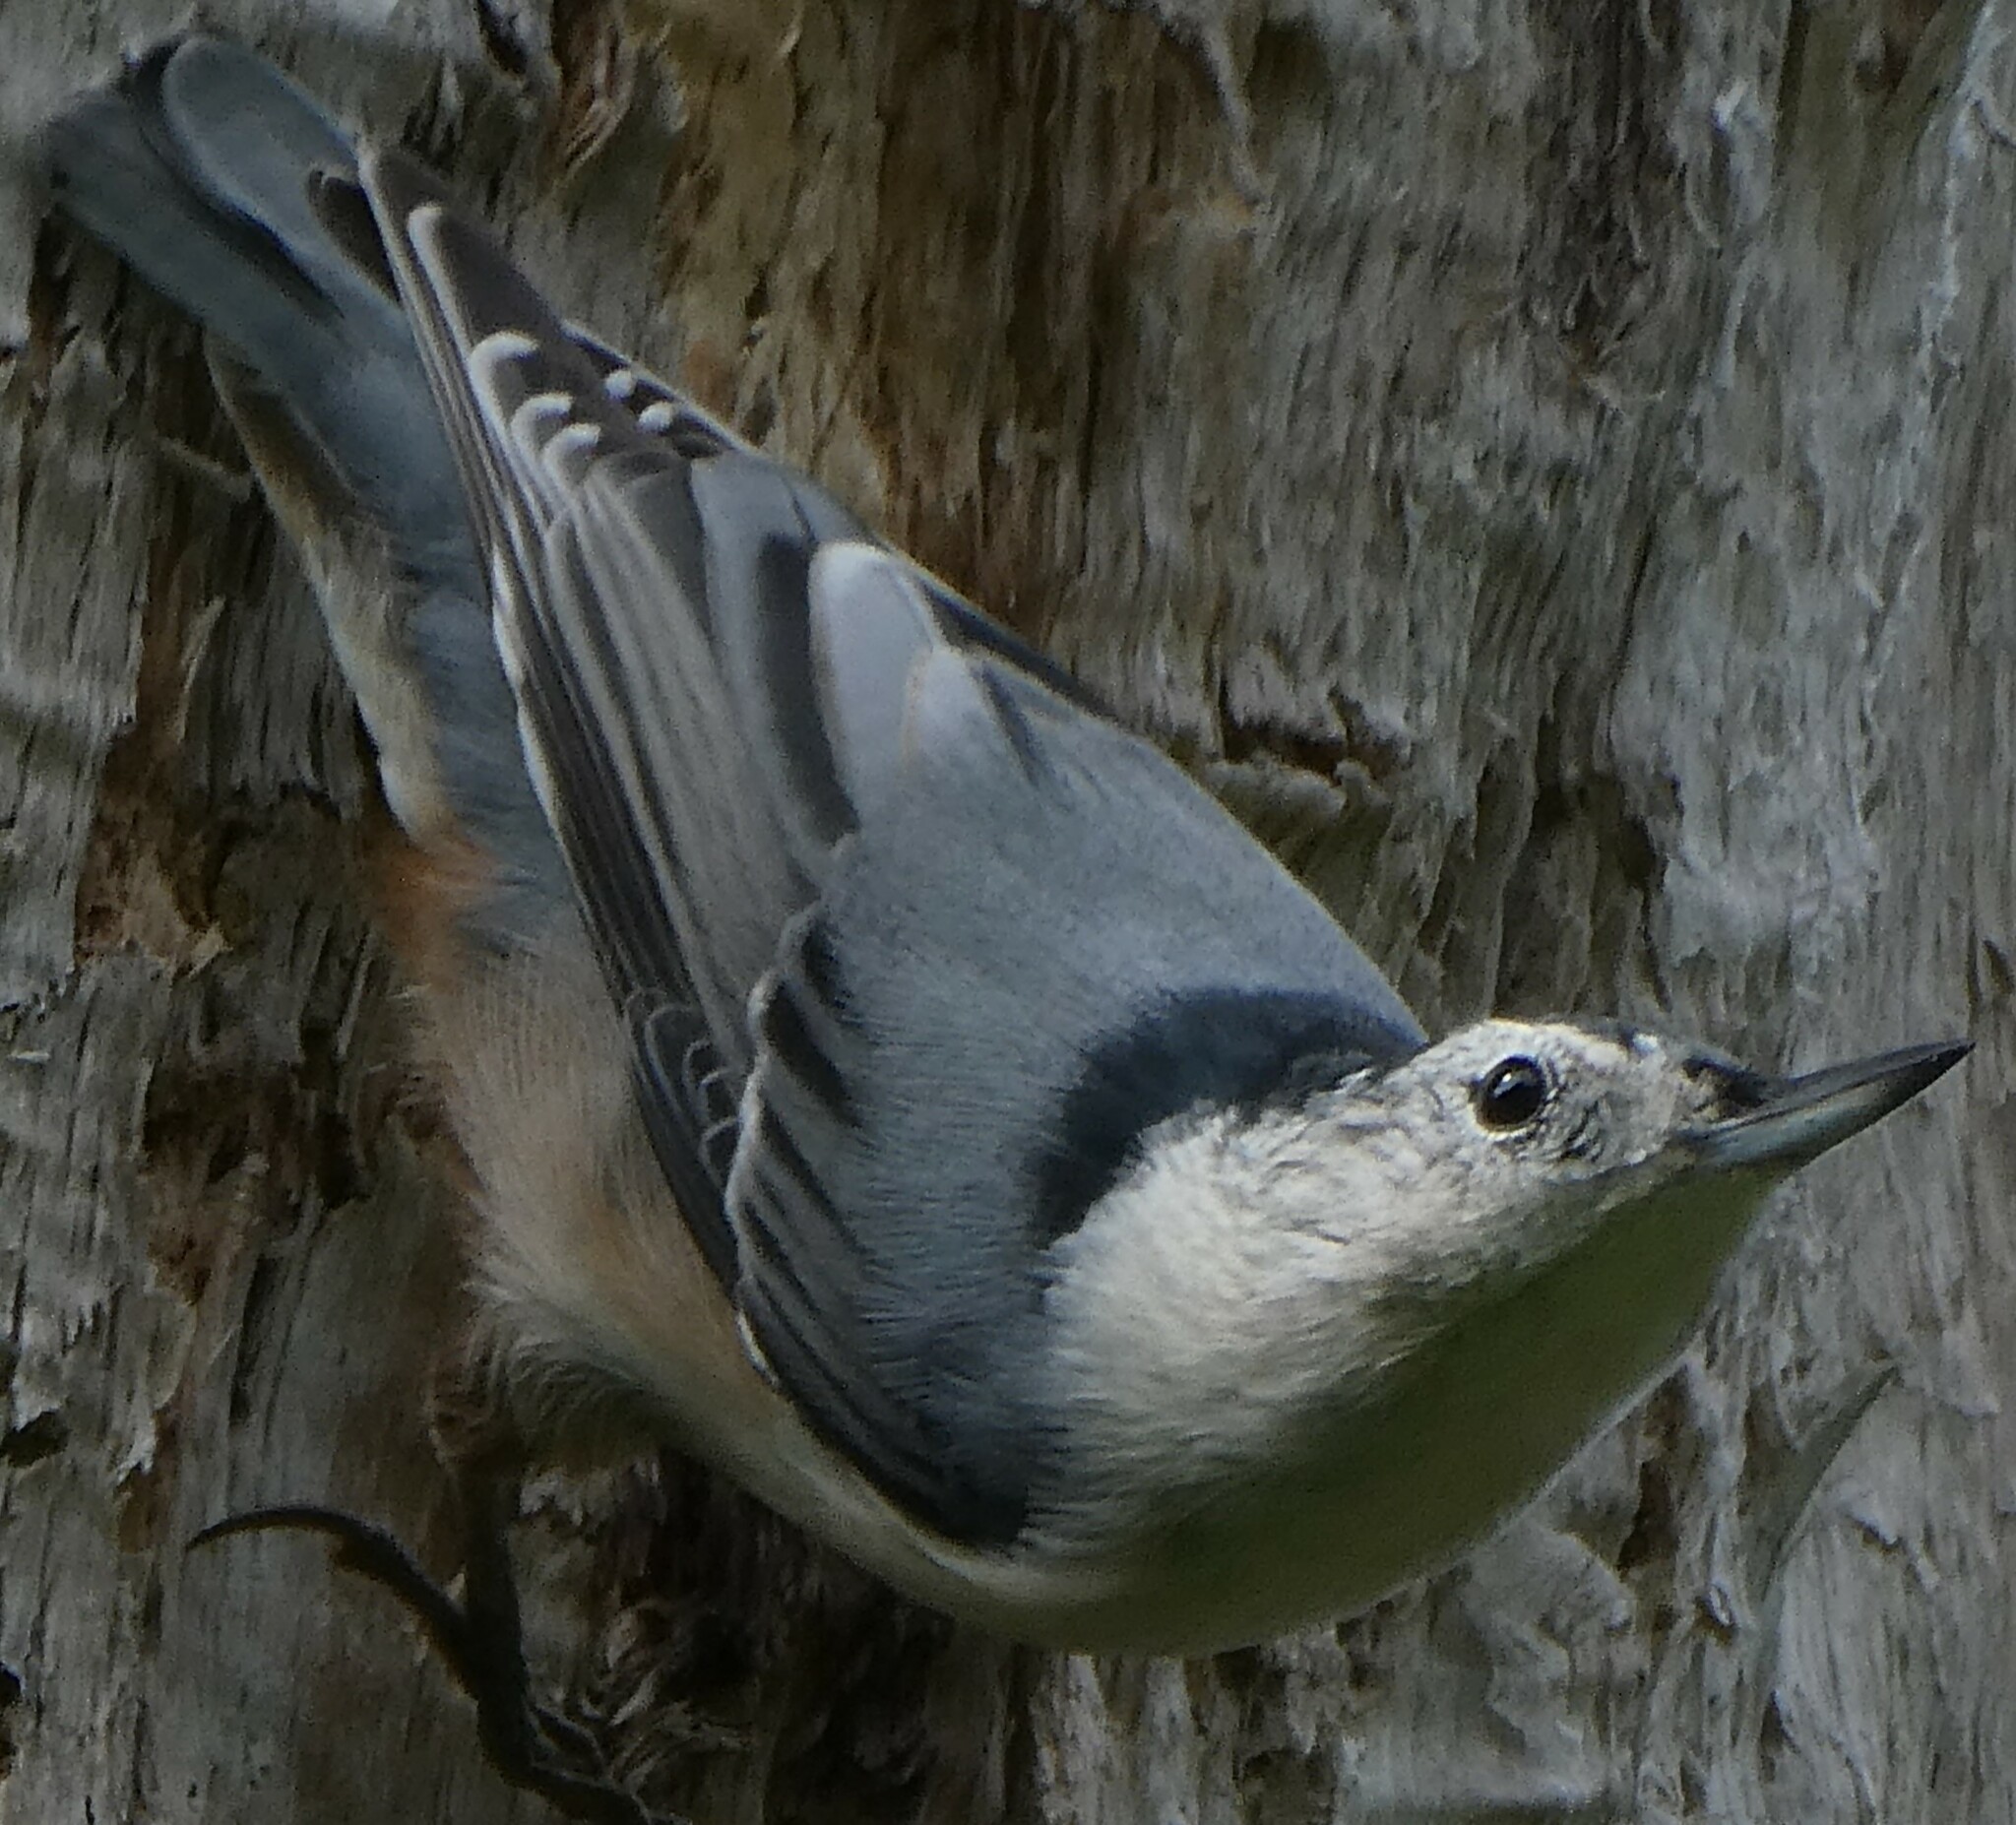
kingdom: Animalia
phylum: Chordata
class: Aves
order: Passeriformes
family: Sittidae
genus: Sitta
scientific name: Sitta carolinensis
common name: White-breasted nuthatch
